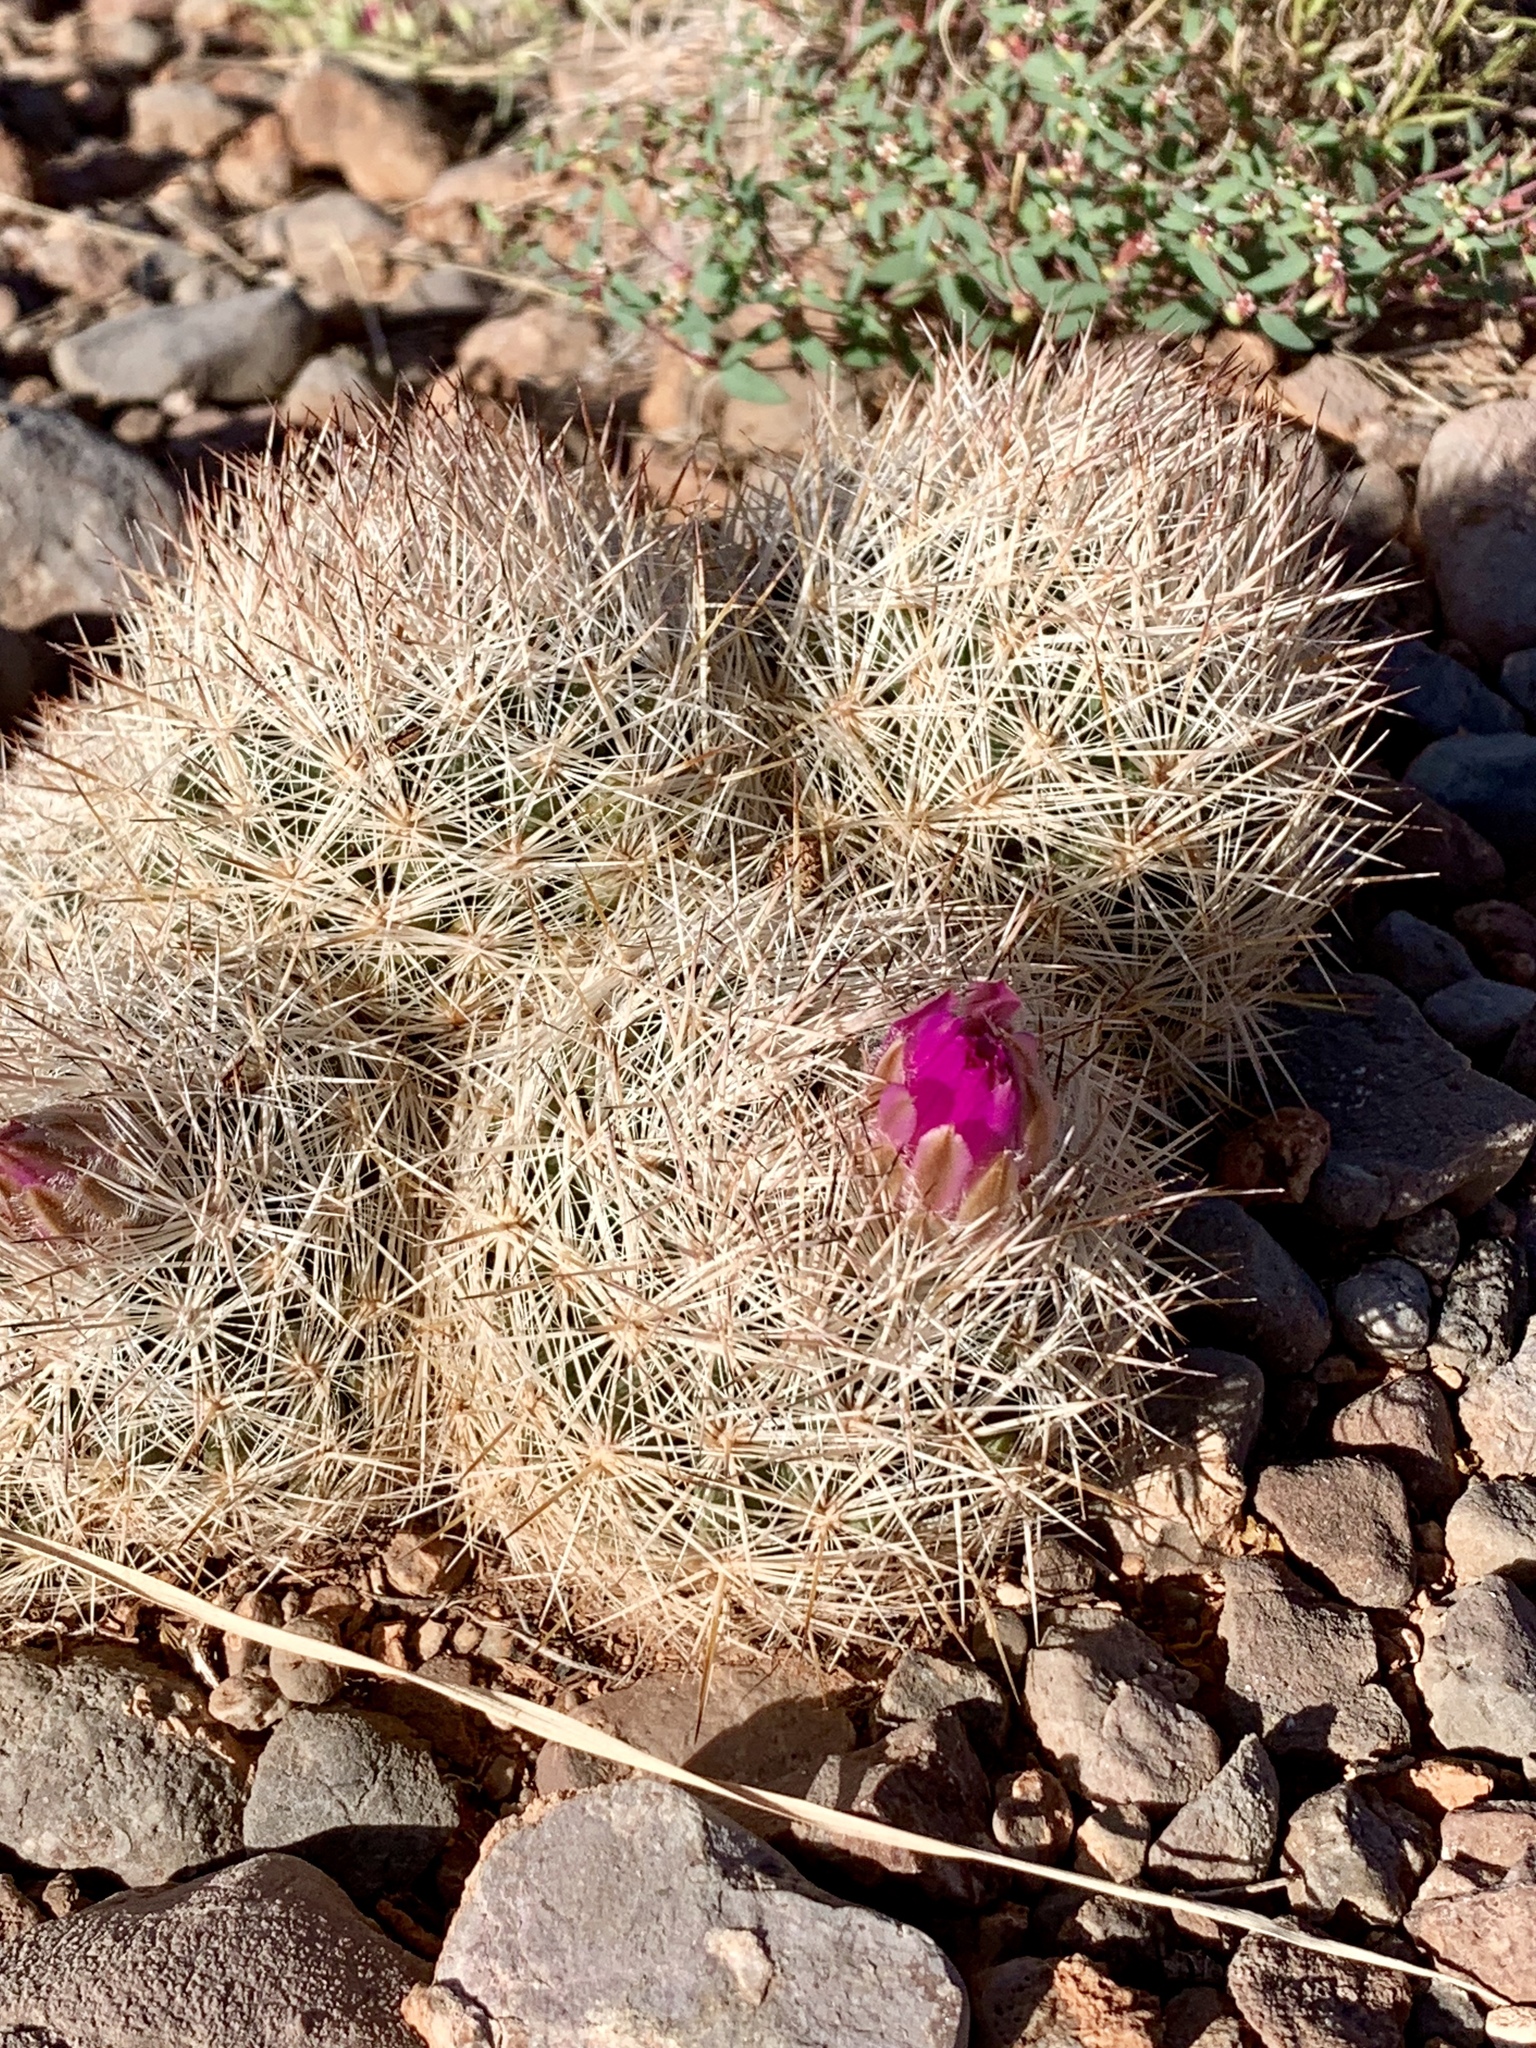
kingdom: Plantae
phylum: Tracheophyta
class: Magnoliopsida
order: Caryophyllales
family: Cactaceae
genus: Pelecyphora
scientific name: Pelecyphora vivipara
